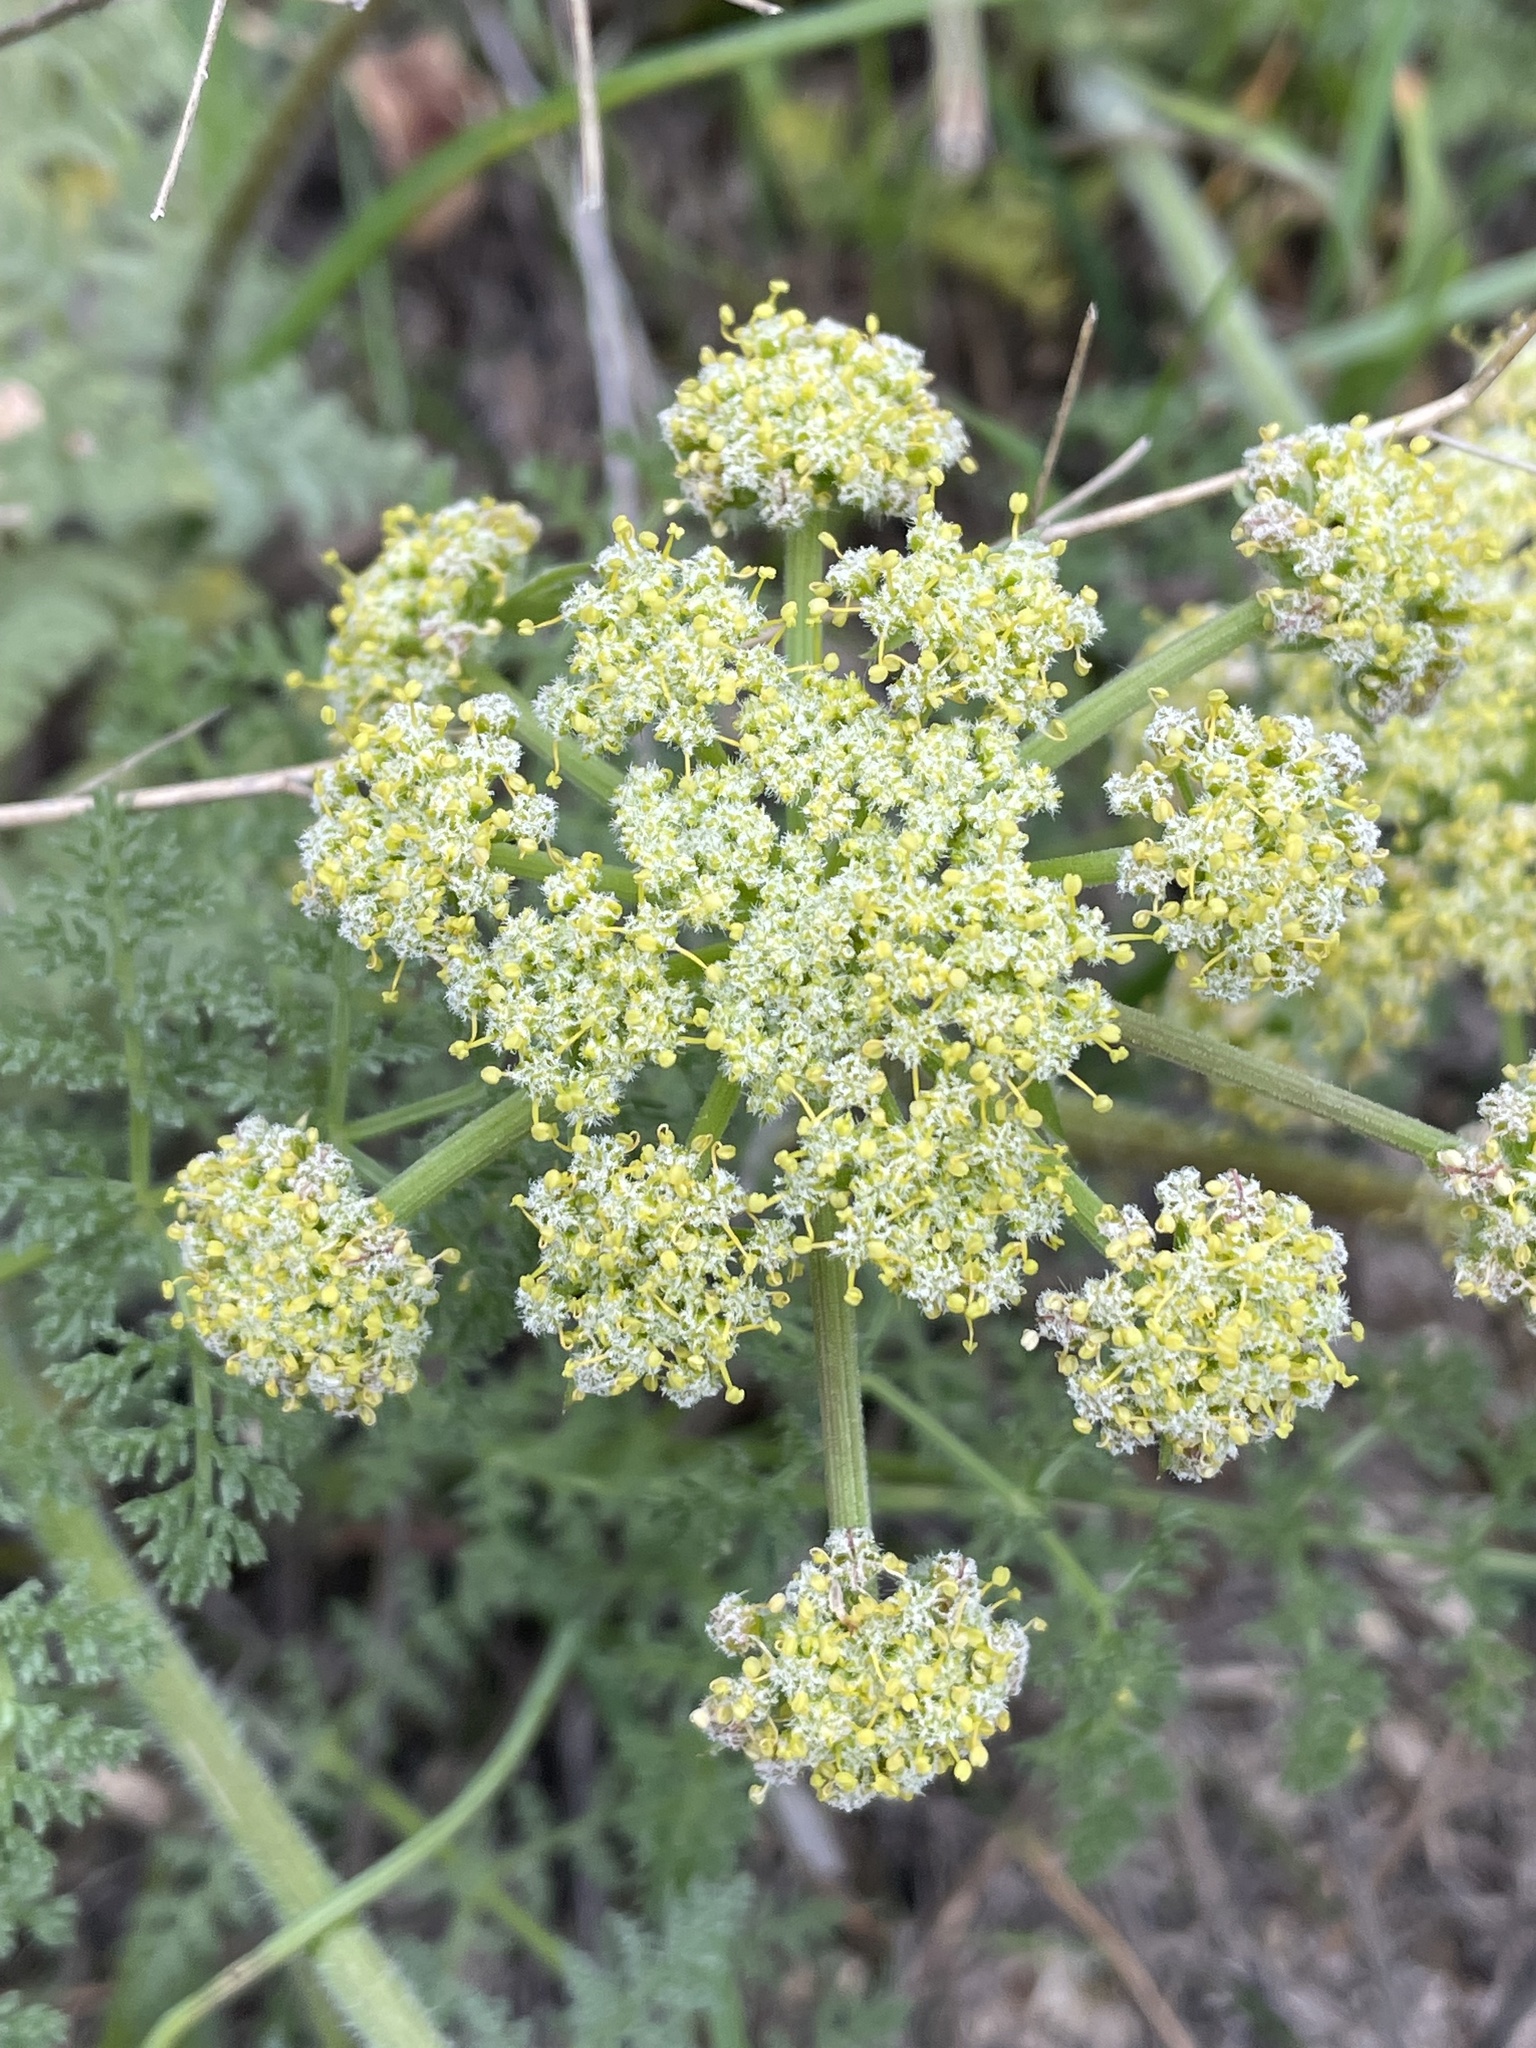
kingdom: Plantae
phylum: Tracheophyta
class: Magnoliopsida
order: Apiales
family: Apiaceae
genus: Lomatium
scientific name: Lomatium dasycarpum
